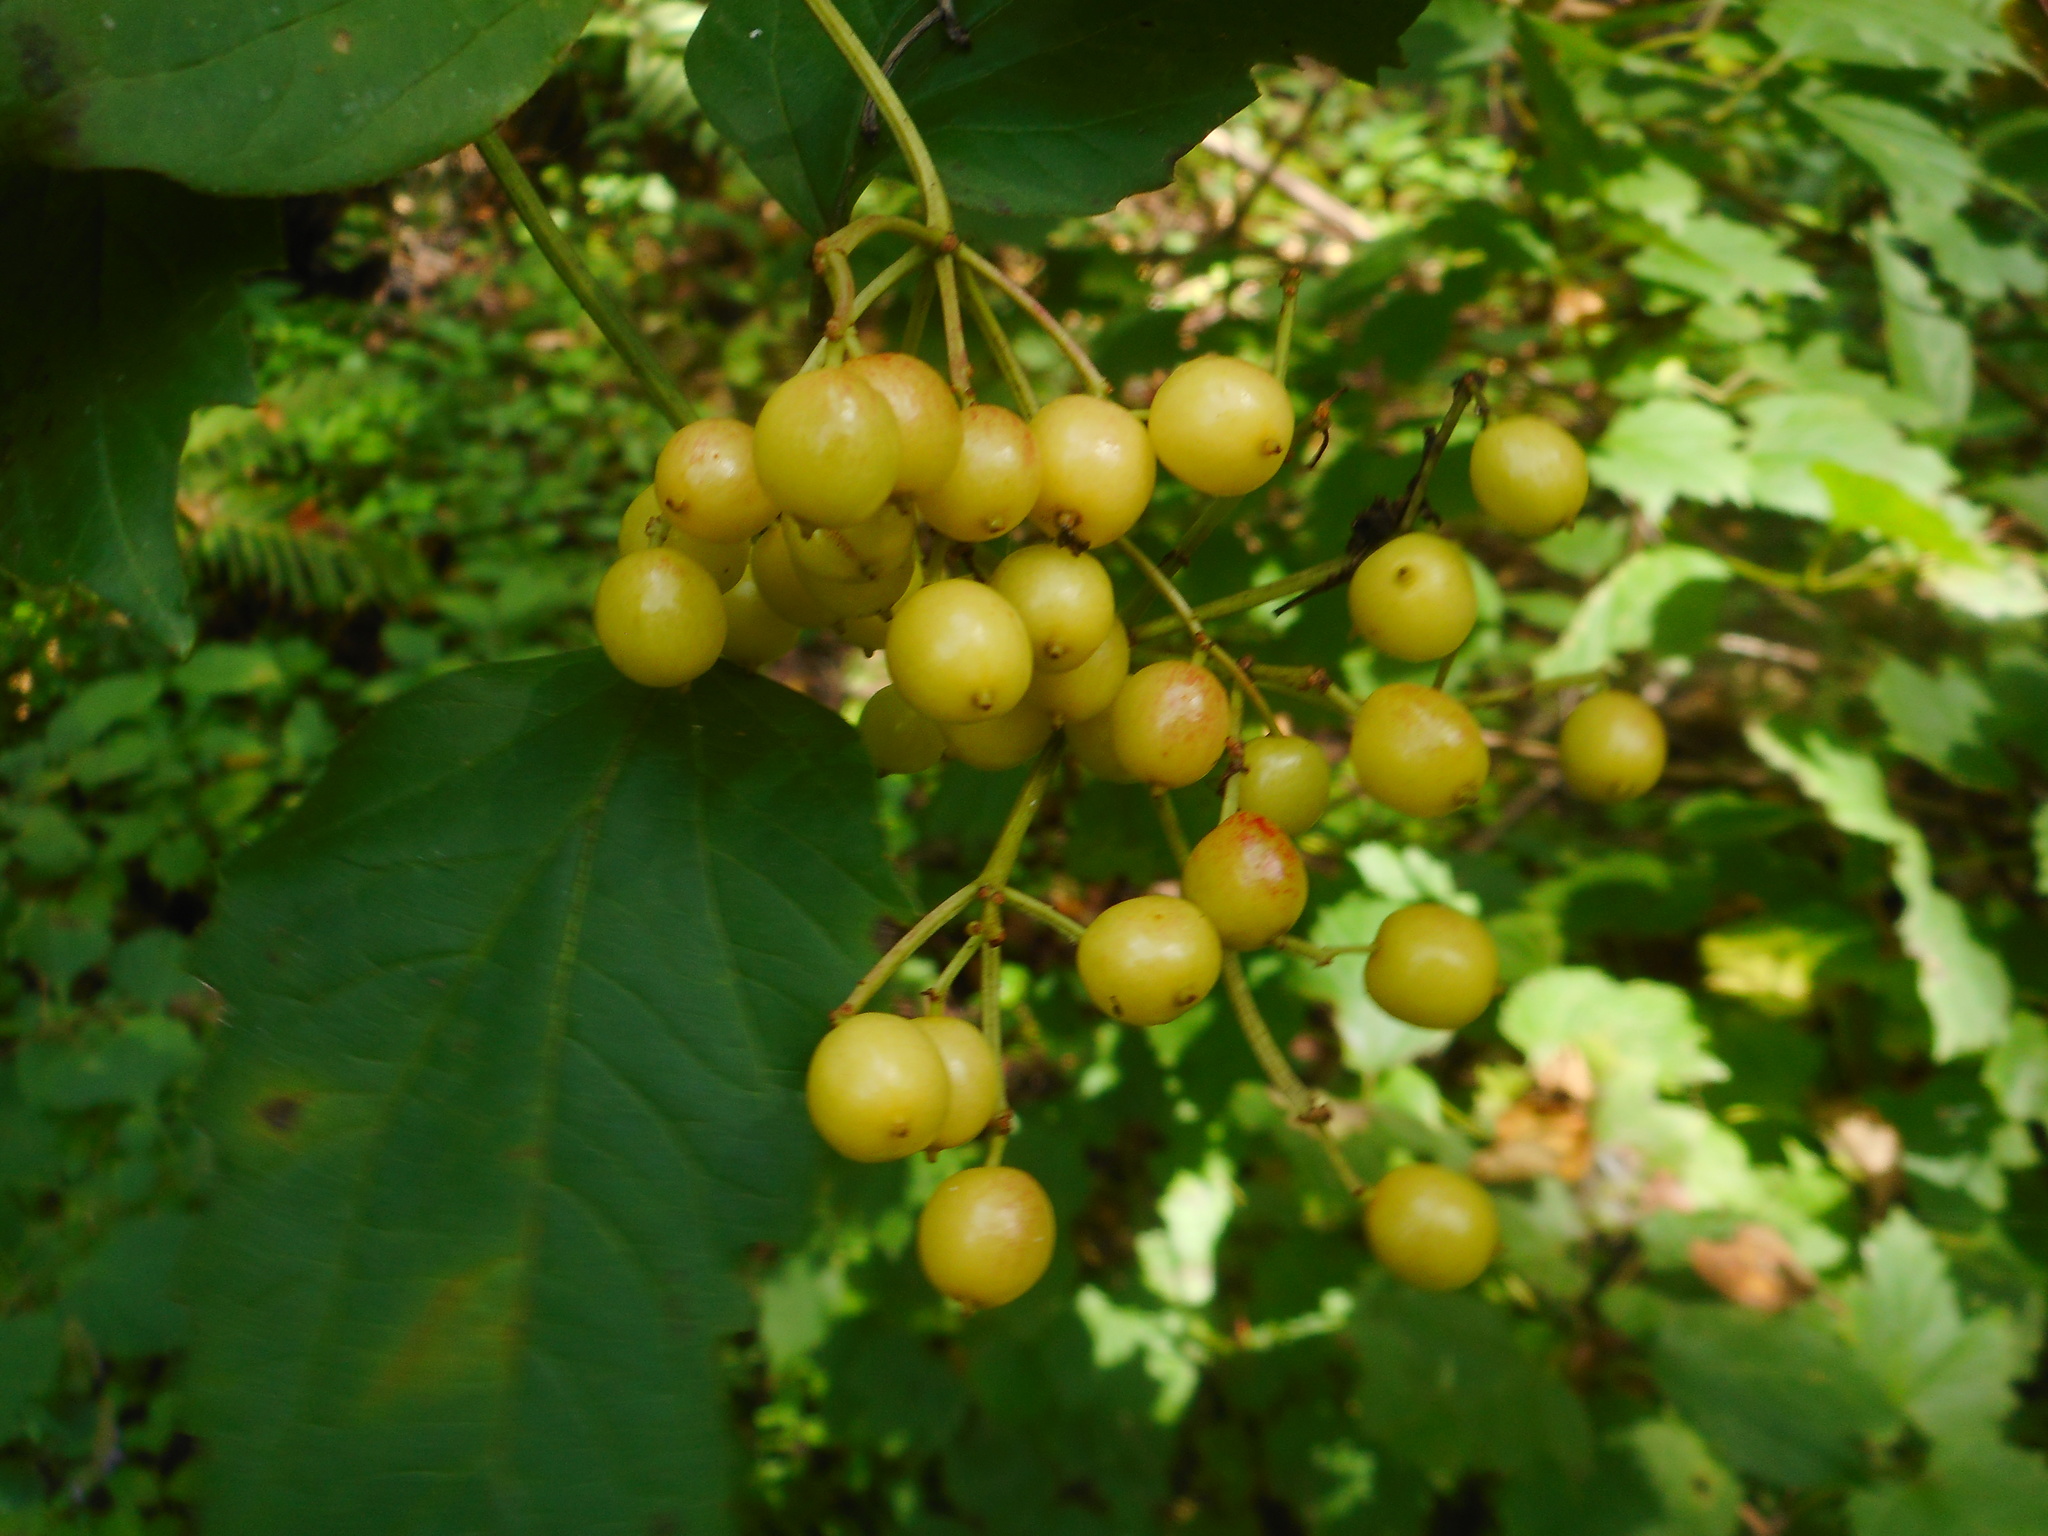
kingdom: Plantae
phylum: Tracheophyta
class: Magnoliopsida
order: Dipsacales
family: Viburnaceae
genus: Viburnum
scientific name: Viburnum sargentii
